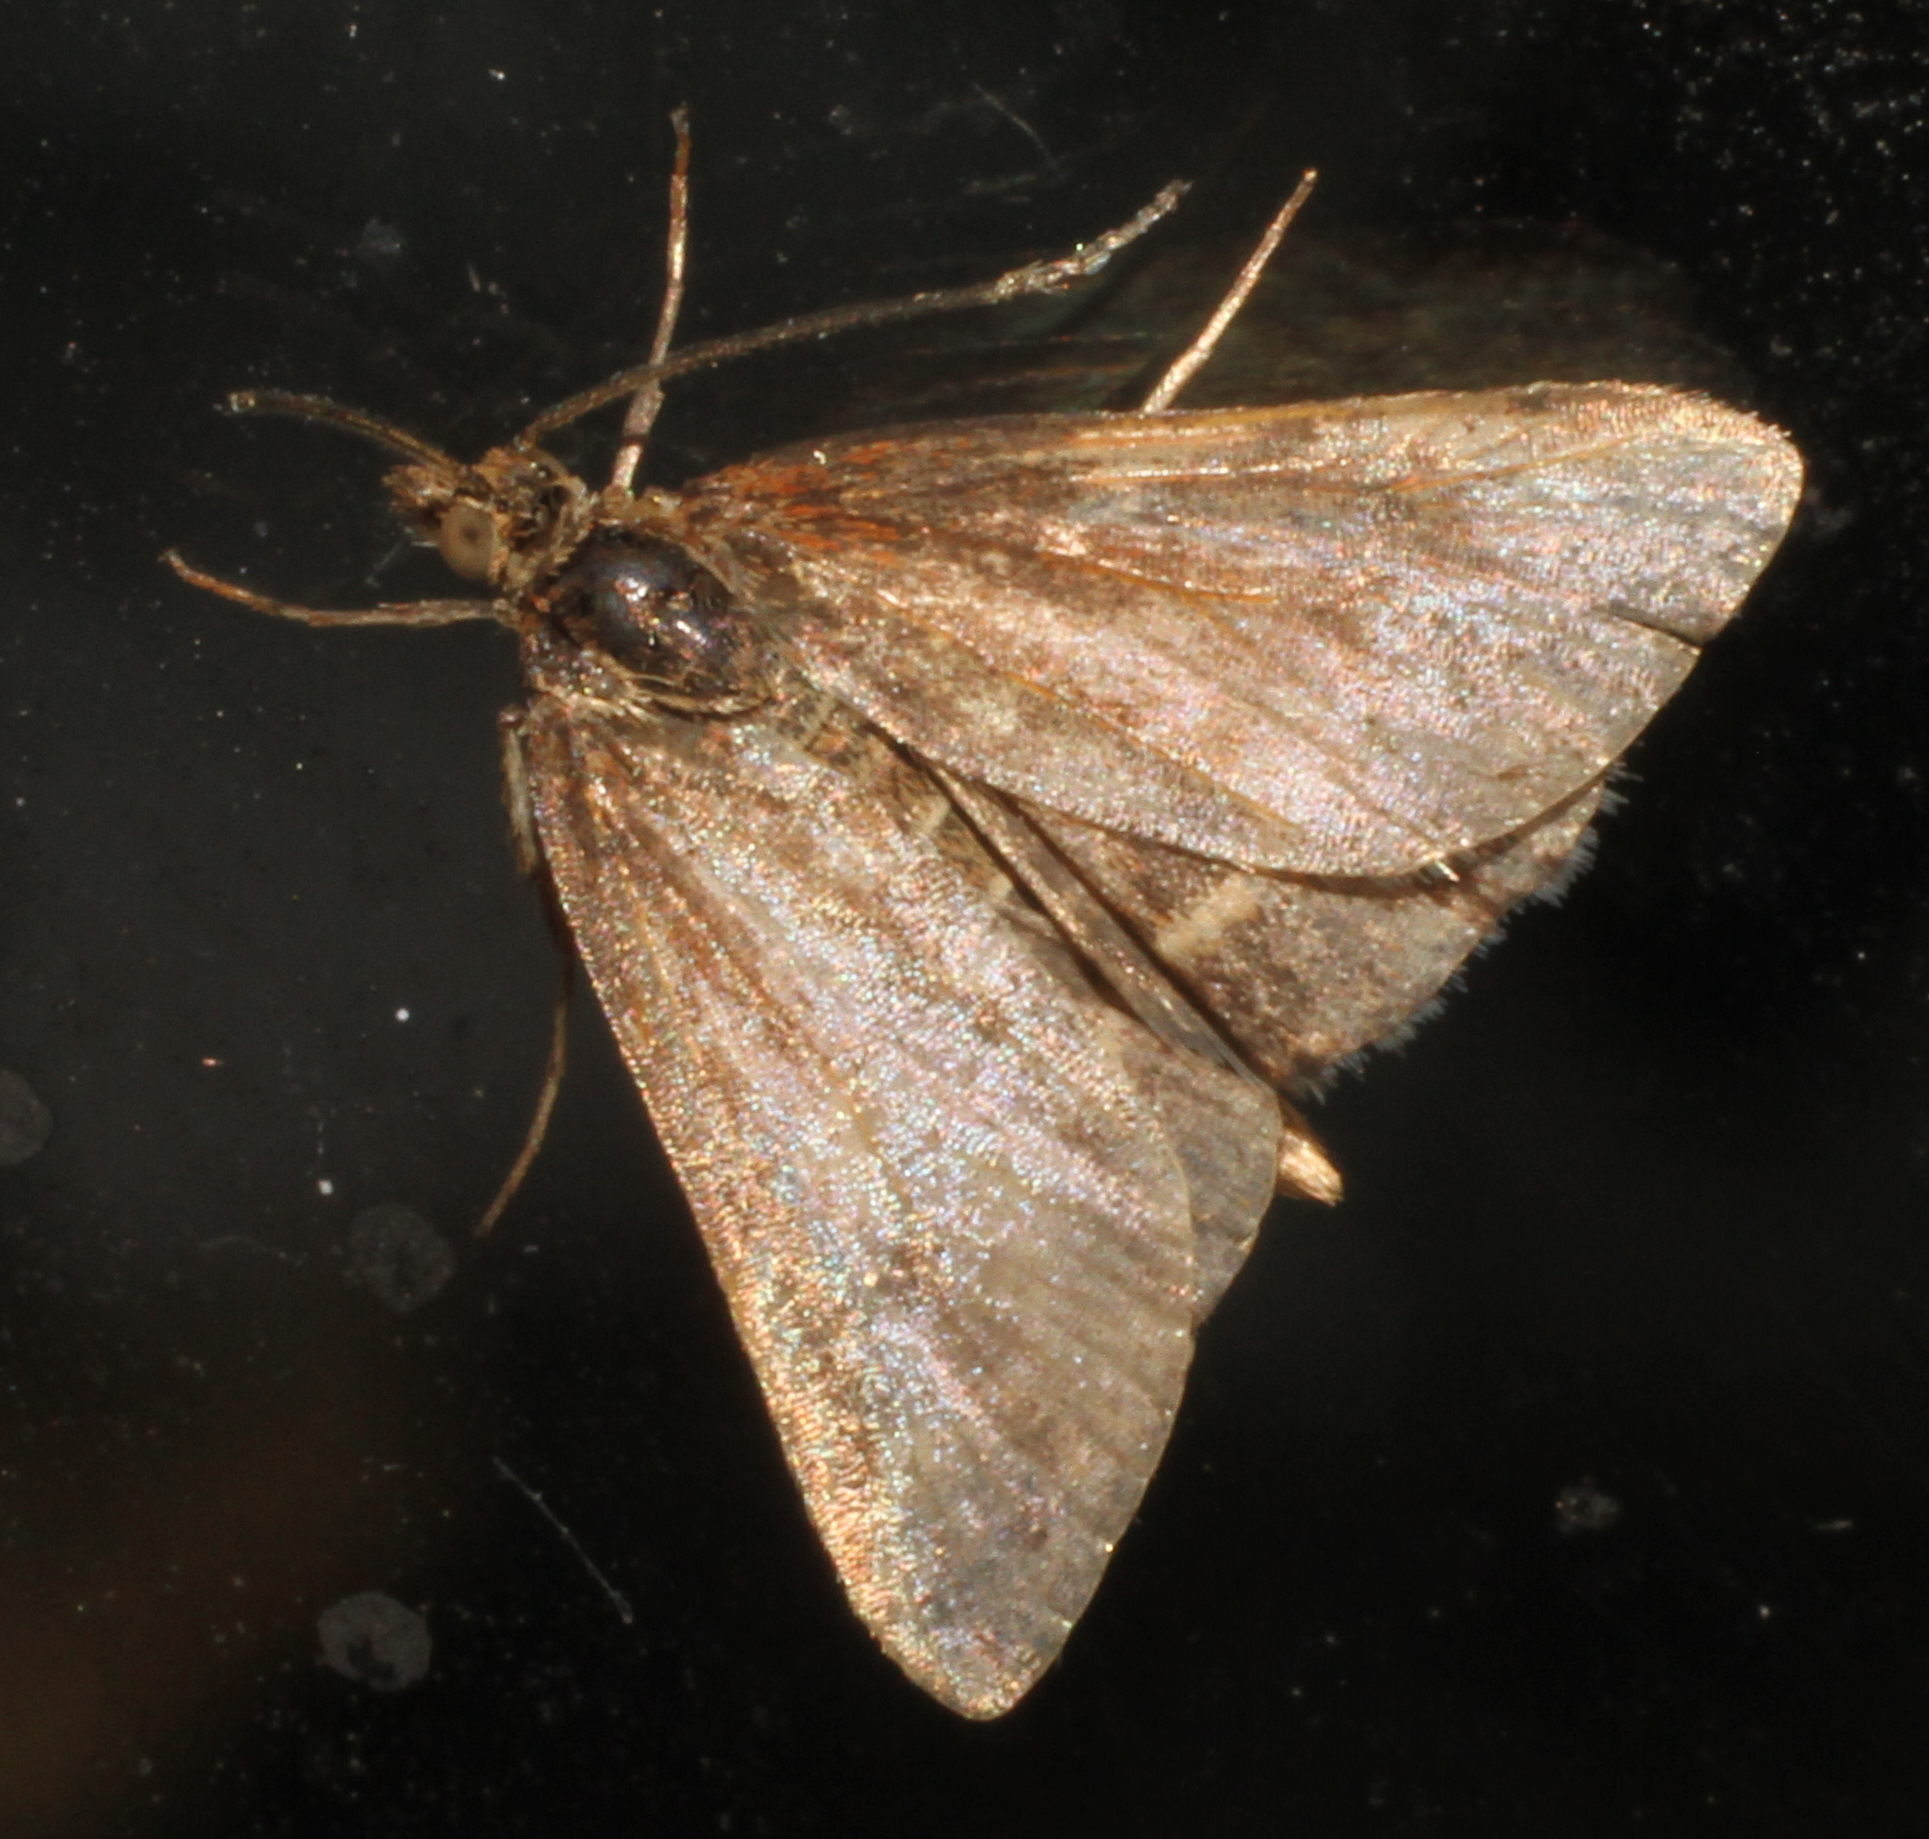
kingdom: Animalia
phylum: Arthropoda
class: Insecta
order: Lepidoptera
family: Crambidae
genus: Pyrausta
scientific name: Pyrausta despicata
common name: Straw-barred pearl
